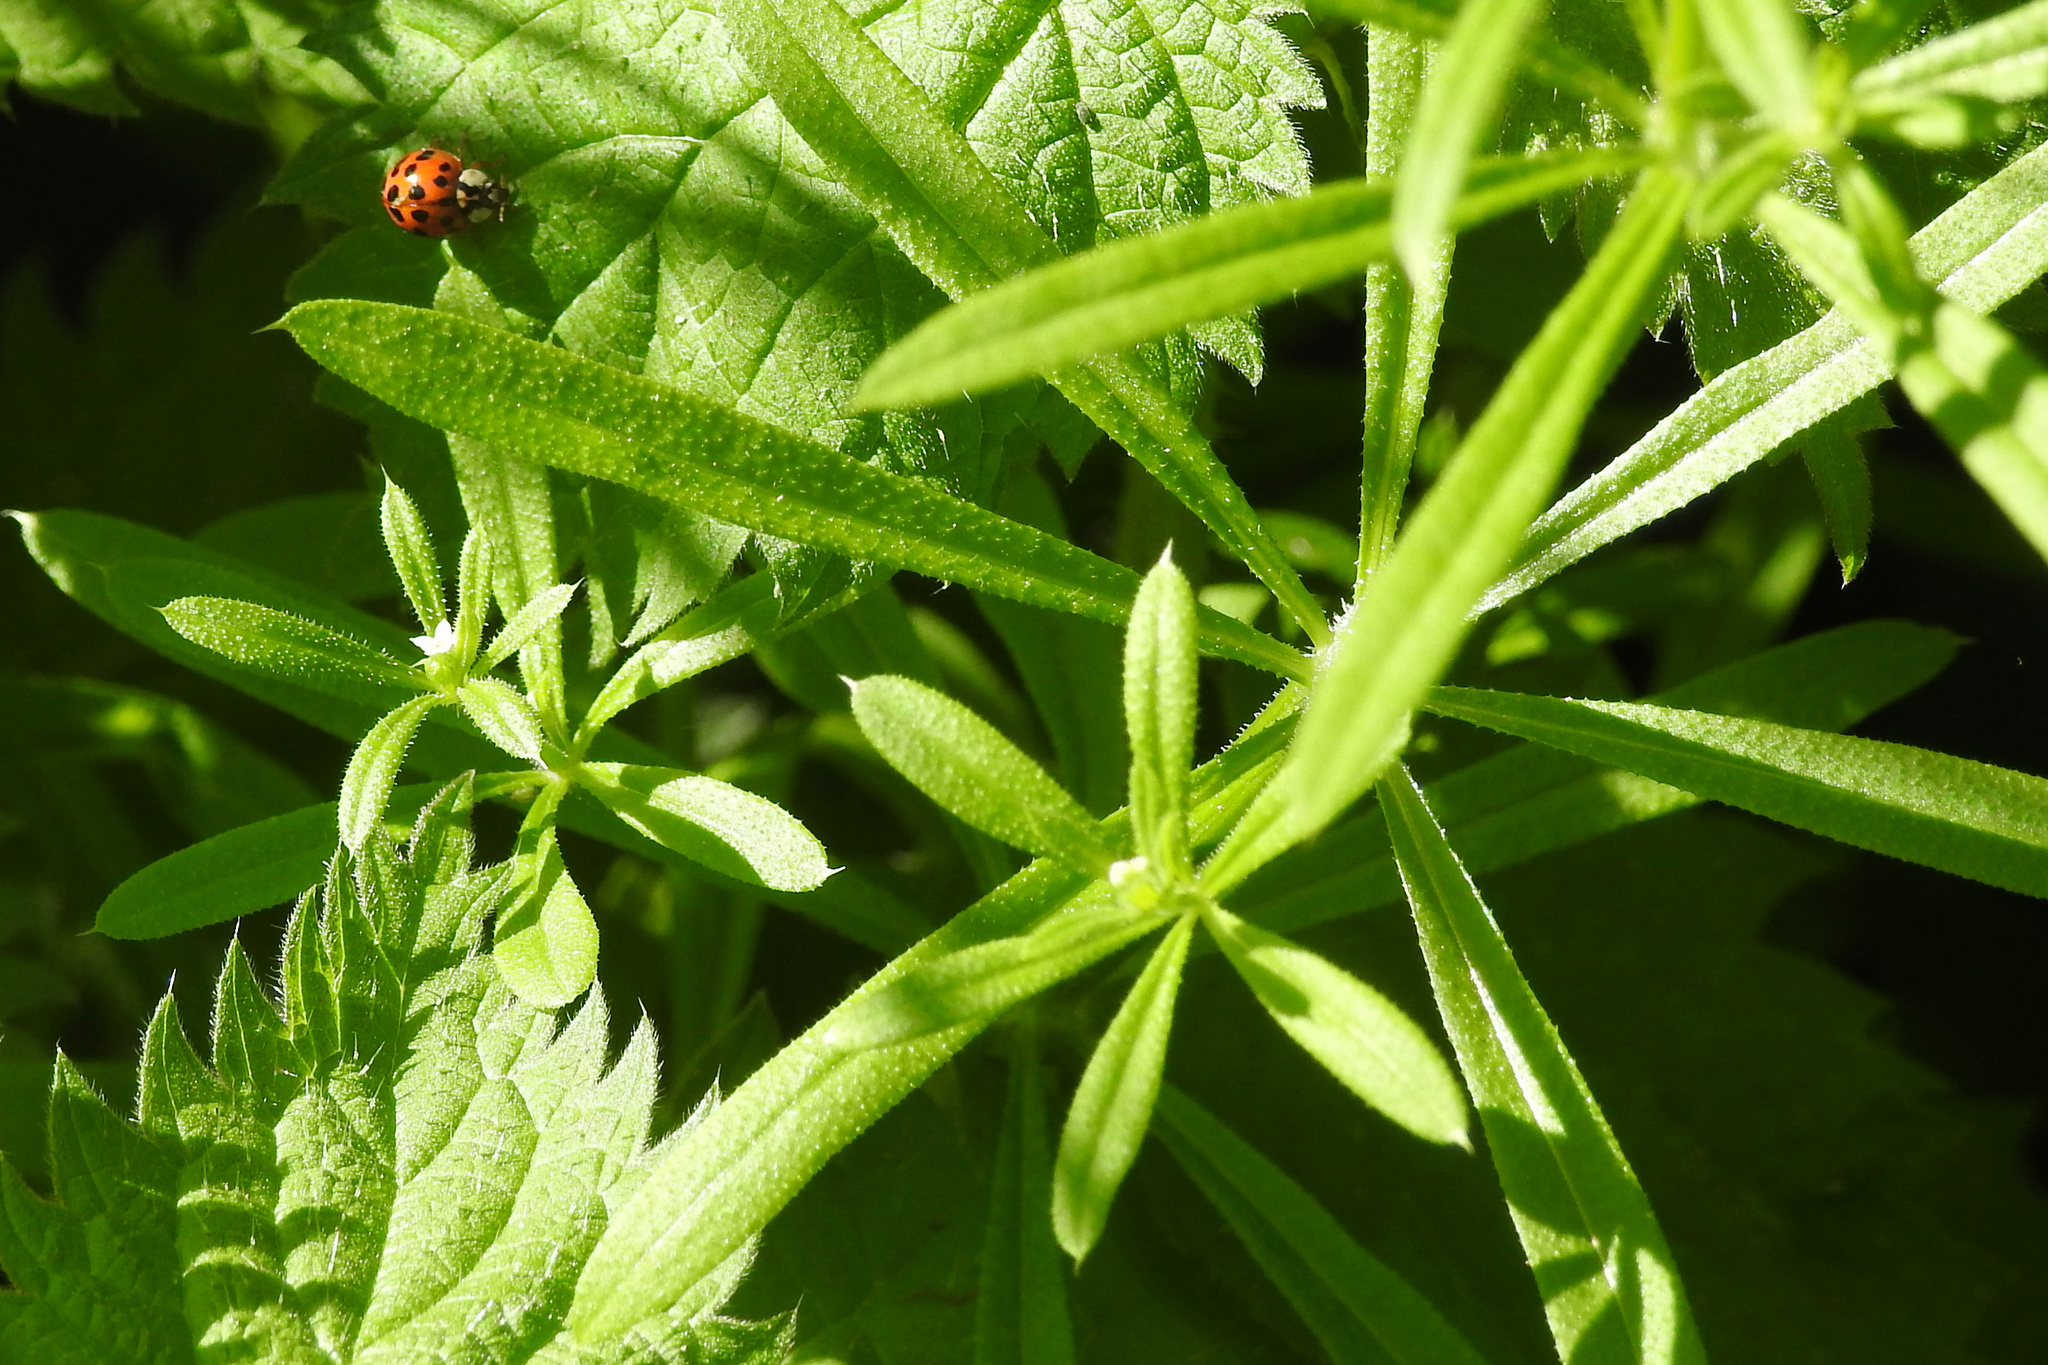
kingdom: Plantae
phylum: Tracheophyta
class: Magnoliopsida
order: Gentianales
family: Rubiaceae
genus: Galium
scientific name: Galium aparine
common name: Cleavers
